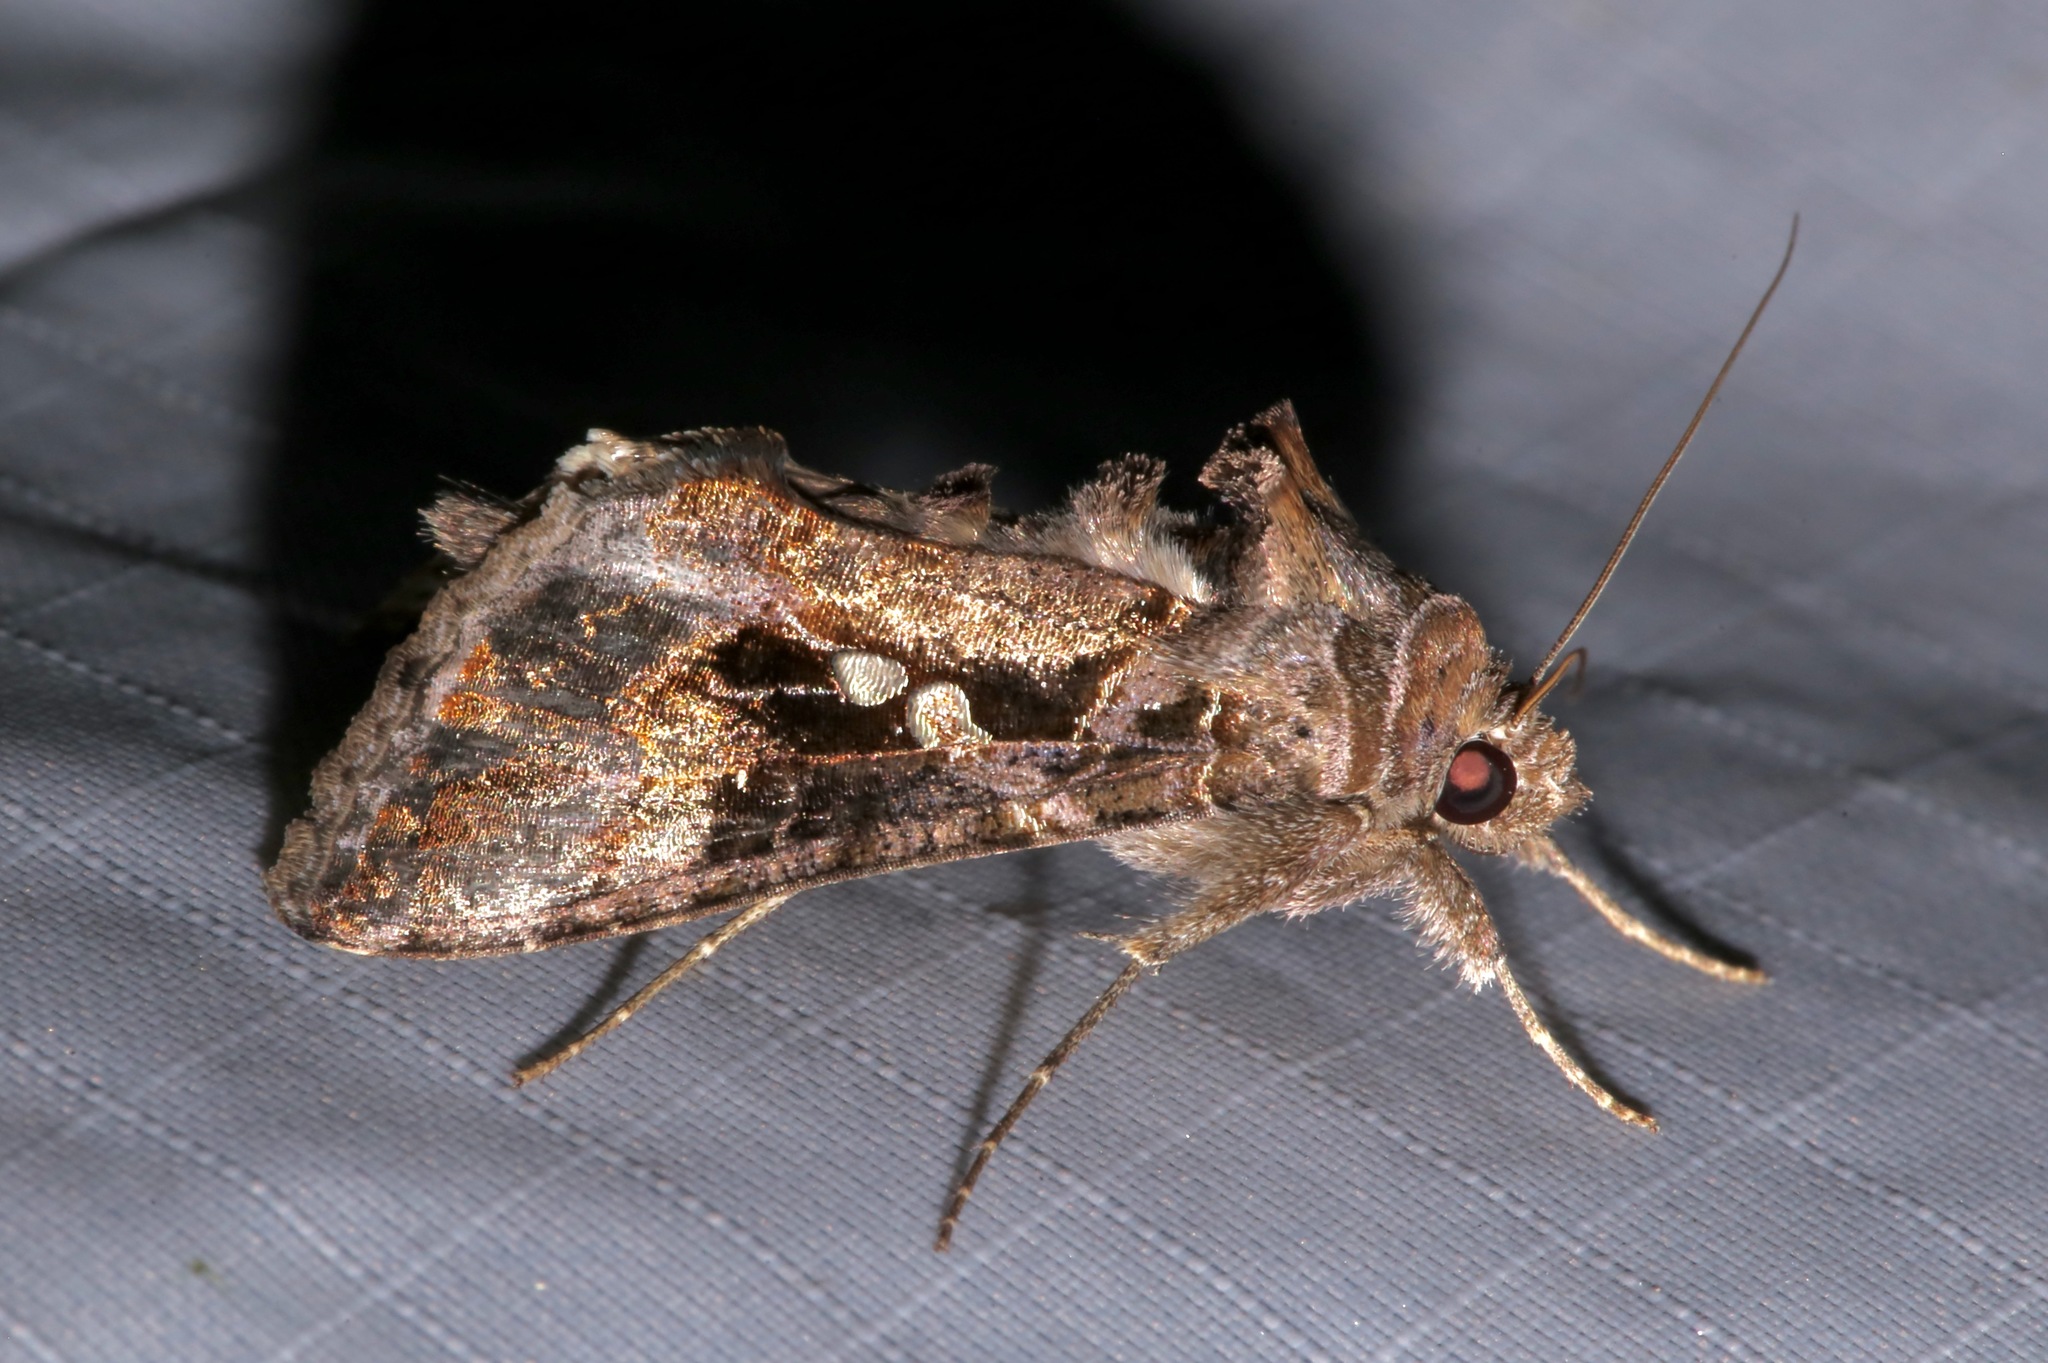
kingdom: Animalia
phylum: Arthropoda
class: Insecta
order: Lepidoptera
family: Noctuidae
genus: Chrysodeixis
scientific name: Chrysodeixis includens
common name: Cutworm moth
